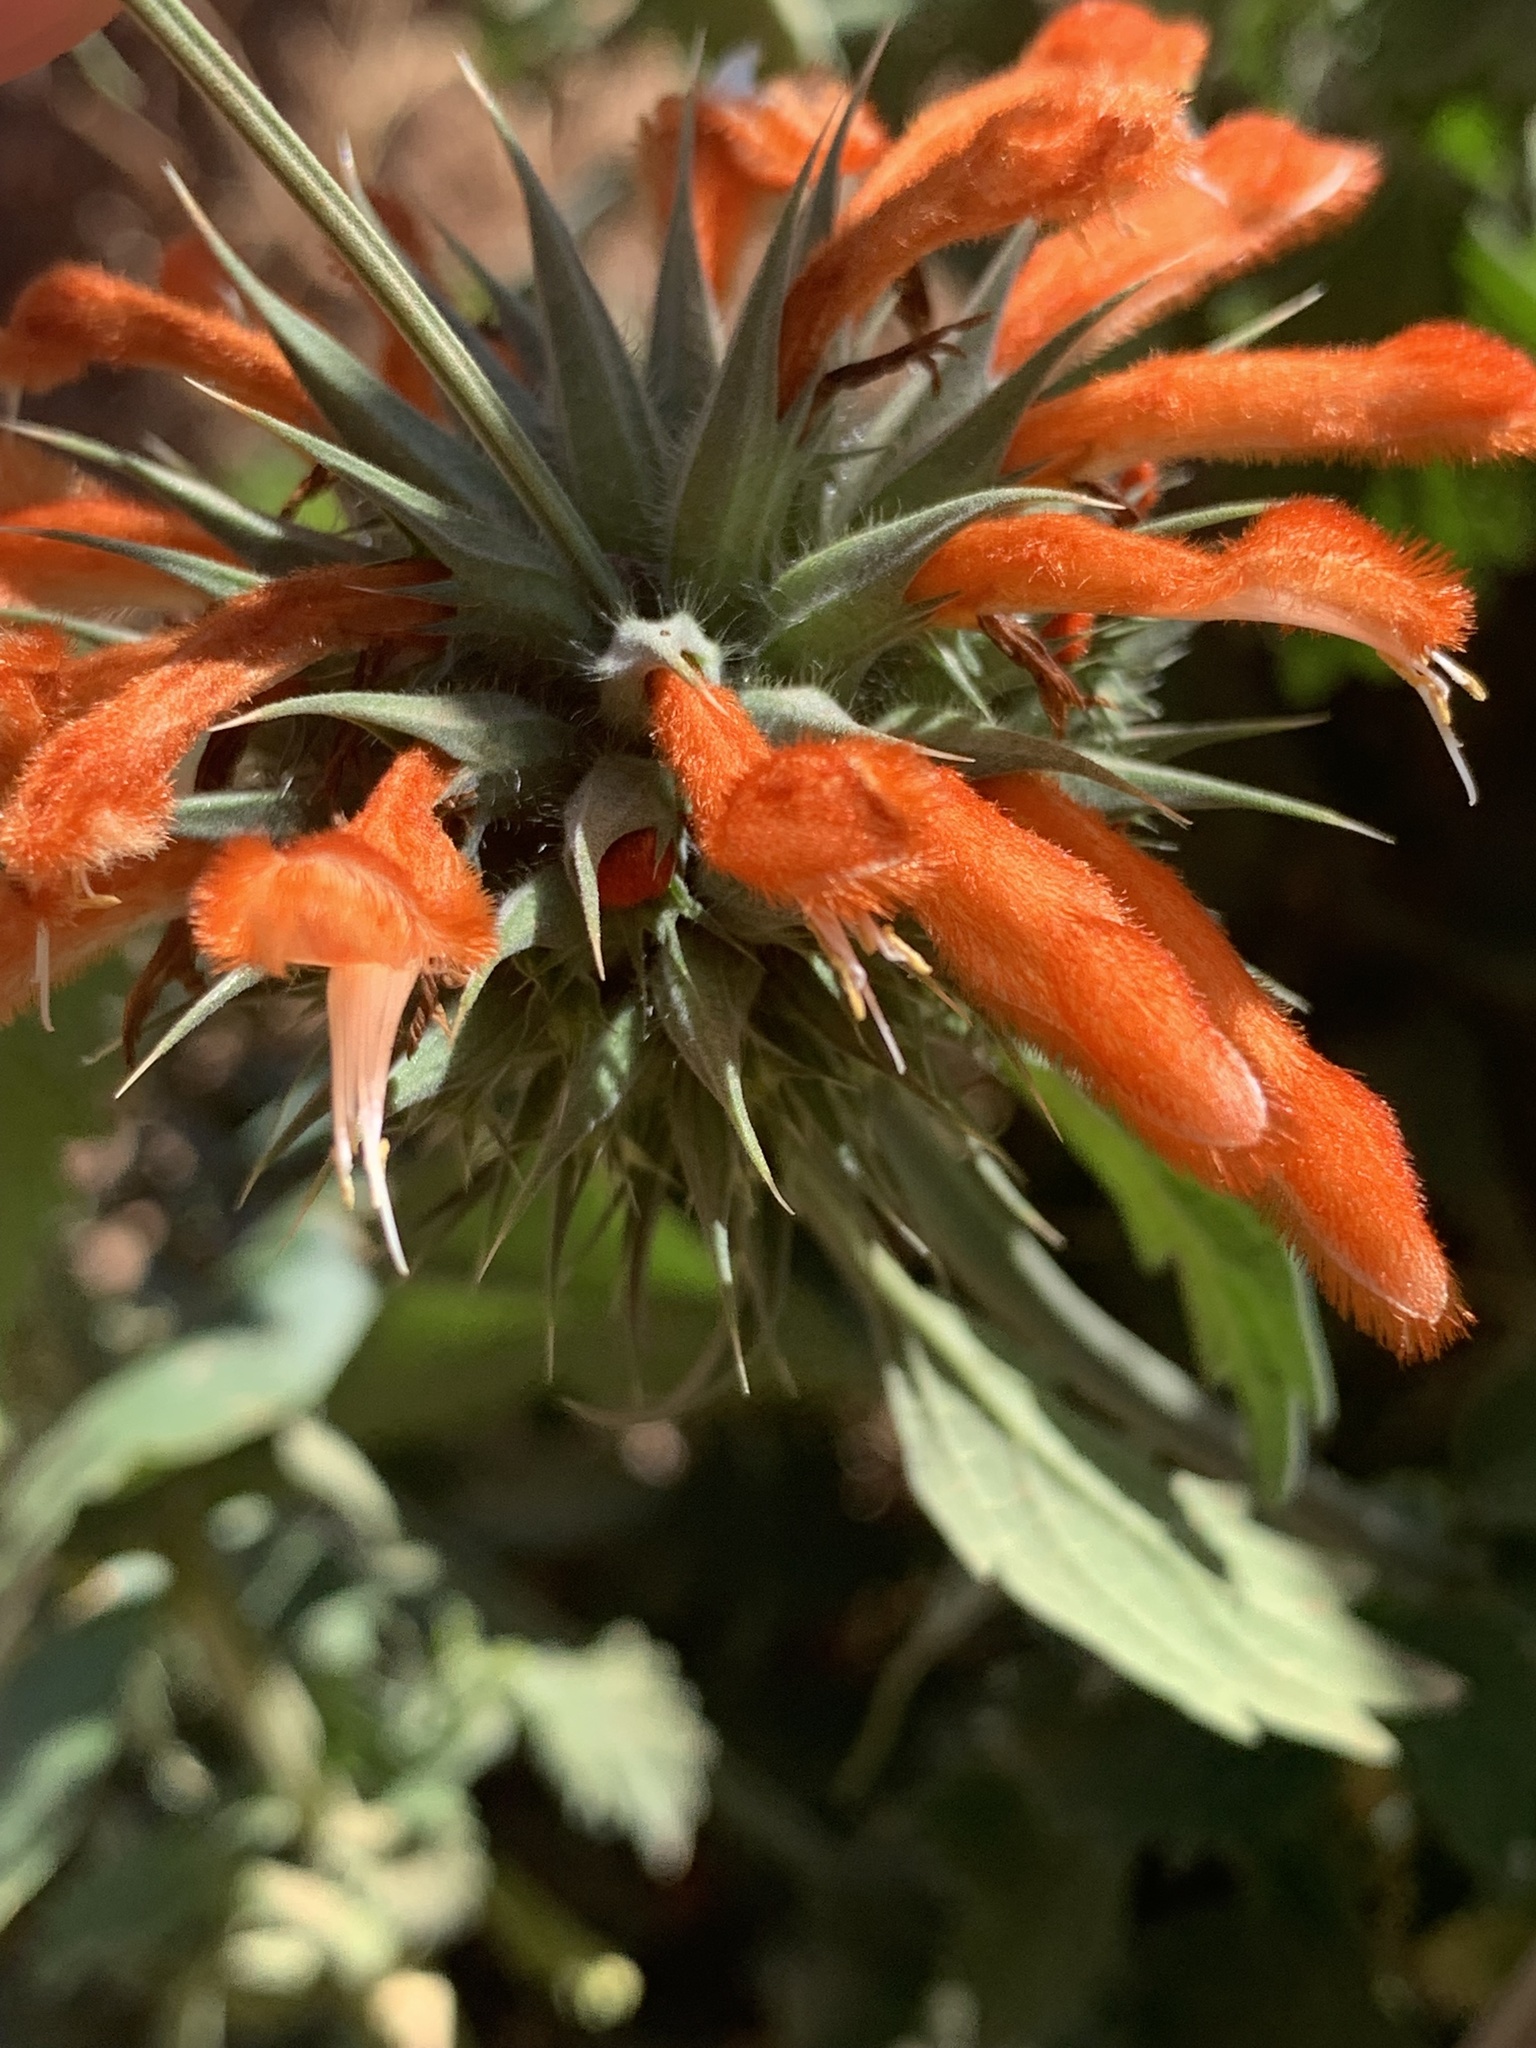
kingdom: Plantae
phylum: Tracheophyta
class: Magnoliopsida
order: Lamiales
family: Lamiaceae
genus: Leonotis
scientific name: Leonotis nepetifolia
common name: Christmas candlestick
